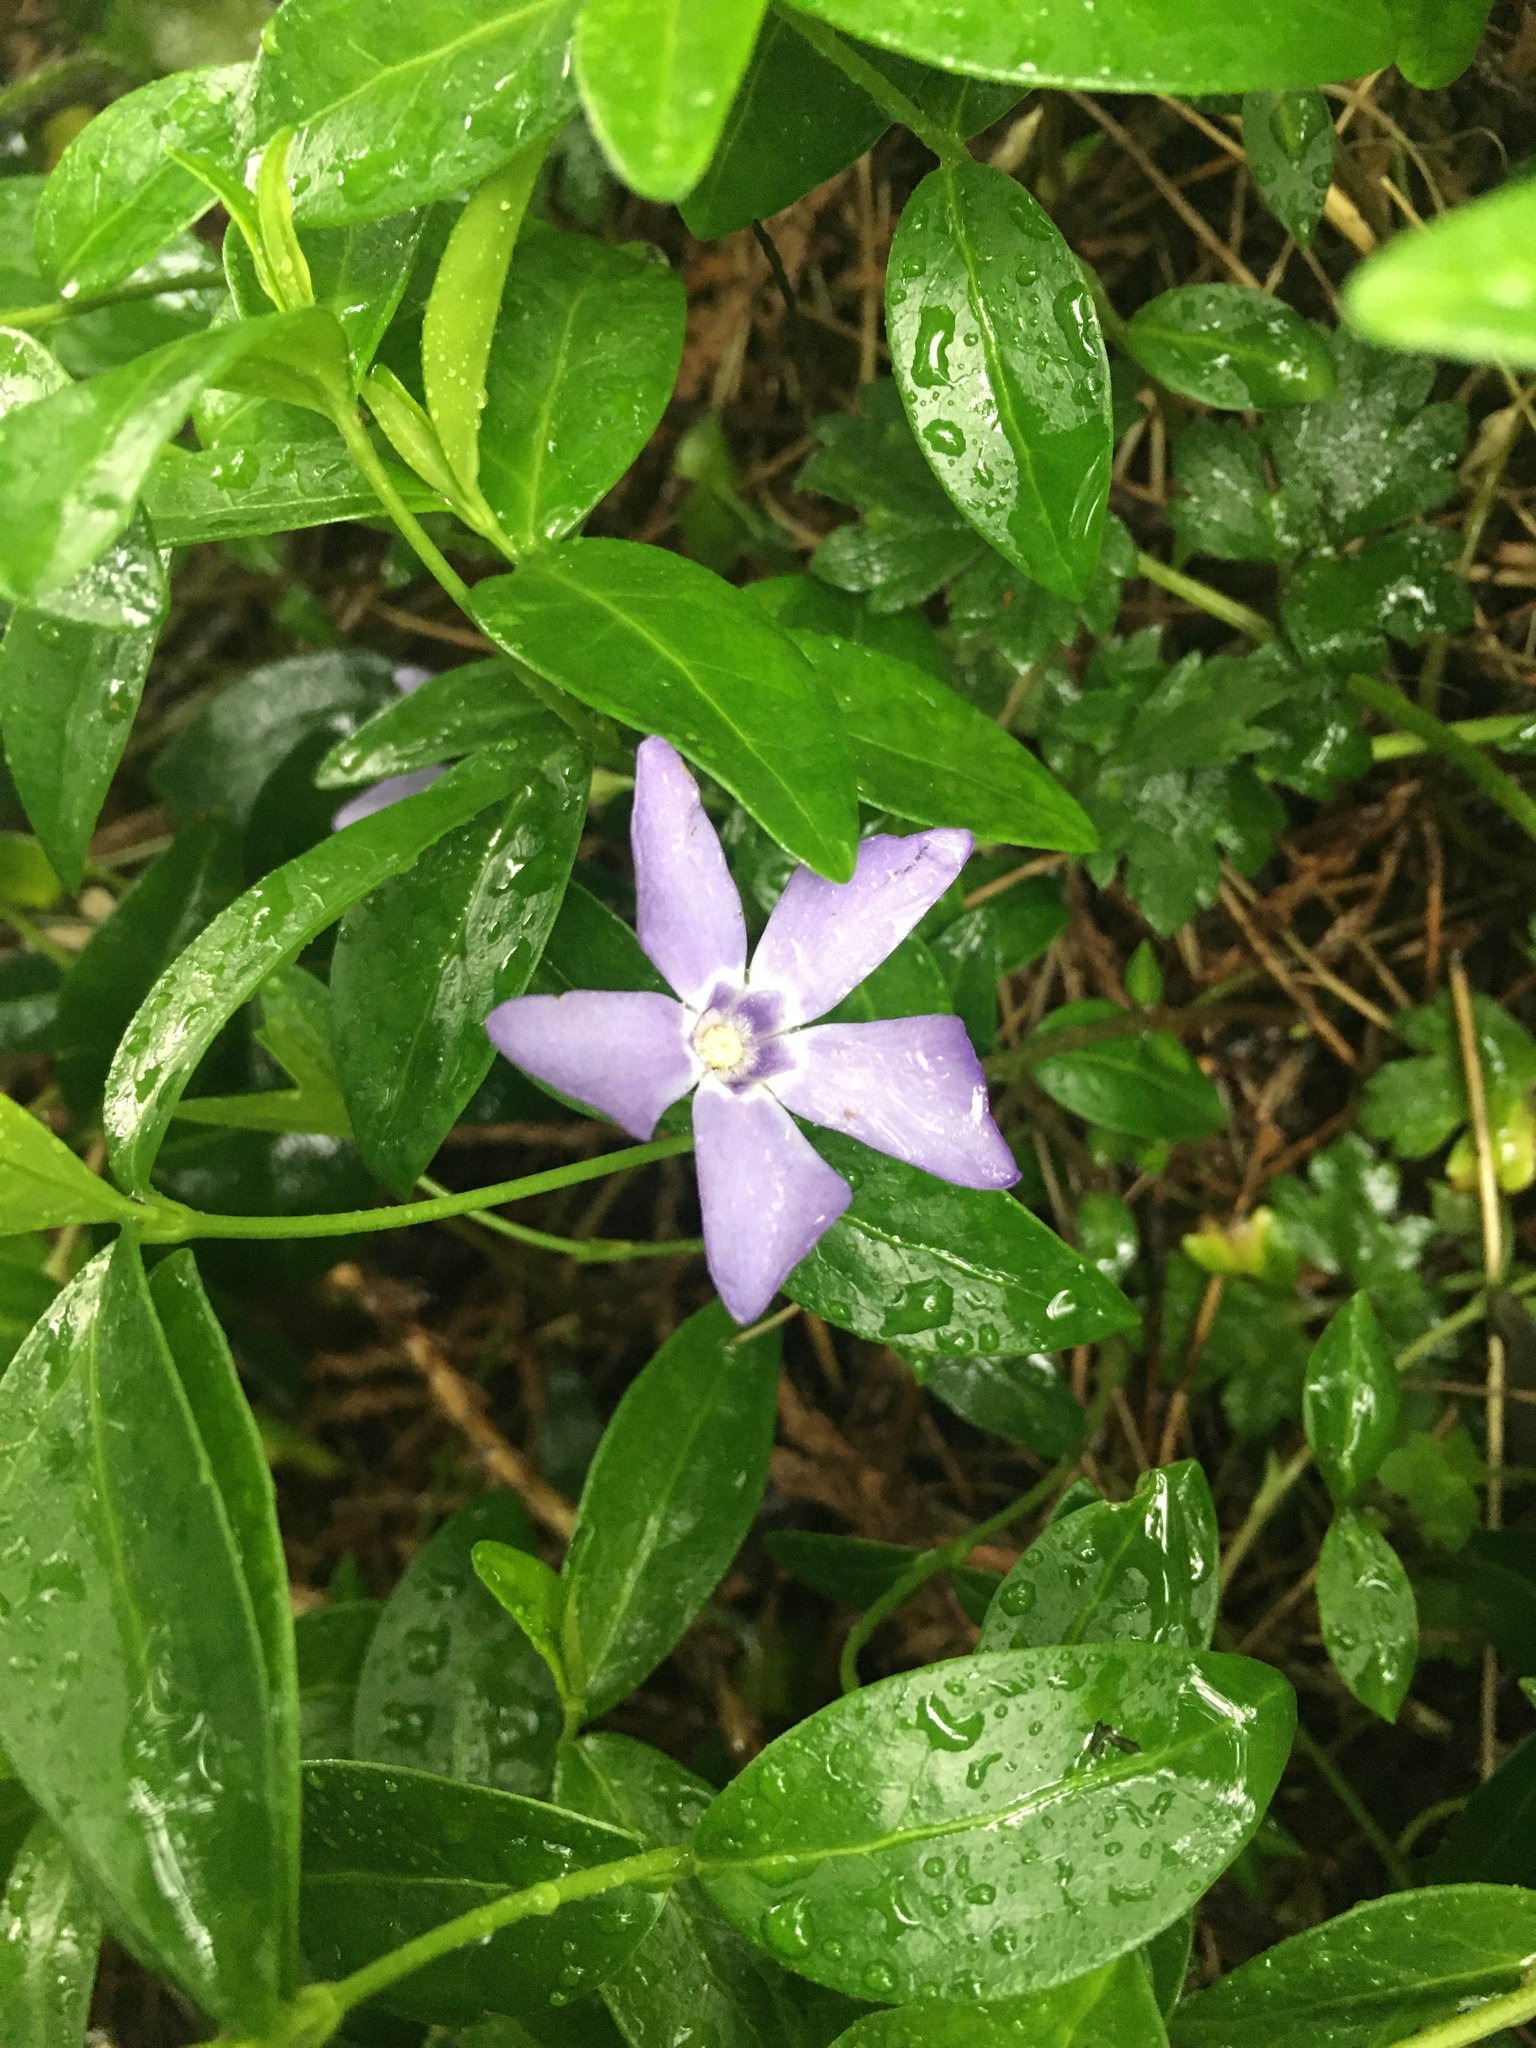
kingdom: Plantae
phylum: Tracheophyta
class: Magnoliopsida
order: Gentianales
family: Apocynaceae
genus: Vinca
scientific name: Vinca minor
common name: Lesser periwinkle
